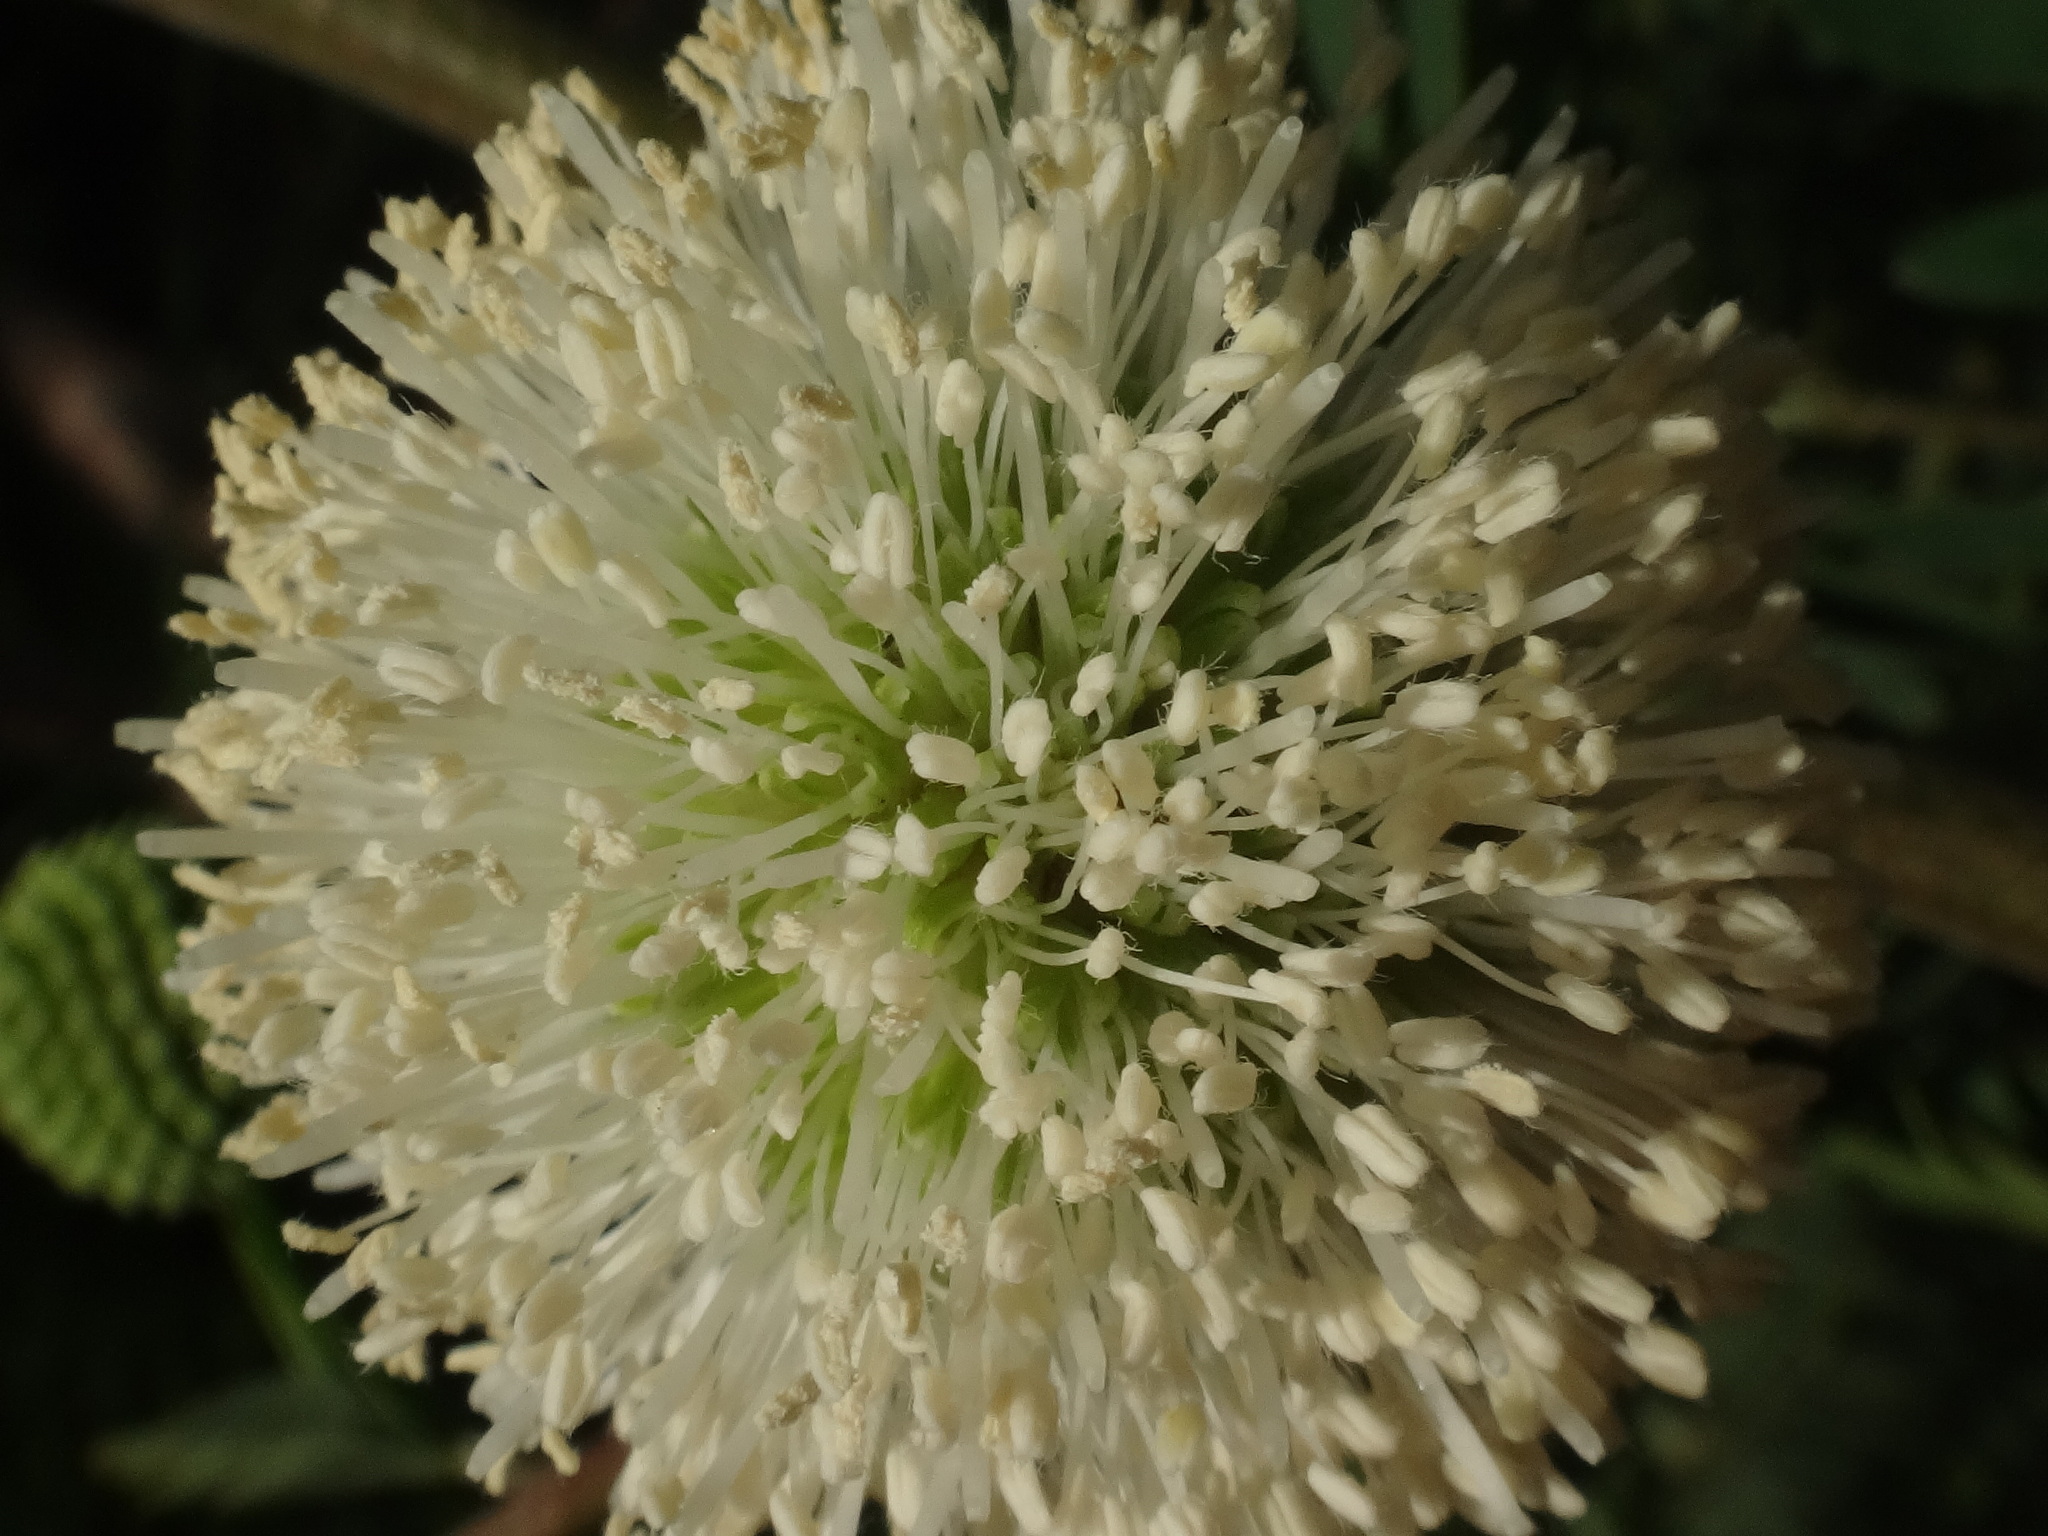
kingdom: Plantae
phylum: Tracheophyta
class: Magnoliopsida
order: Fabales
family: Fabaceae
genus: Leucaena
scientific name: Leucaena leucocephala
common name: White leadtree
